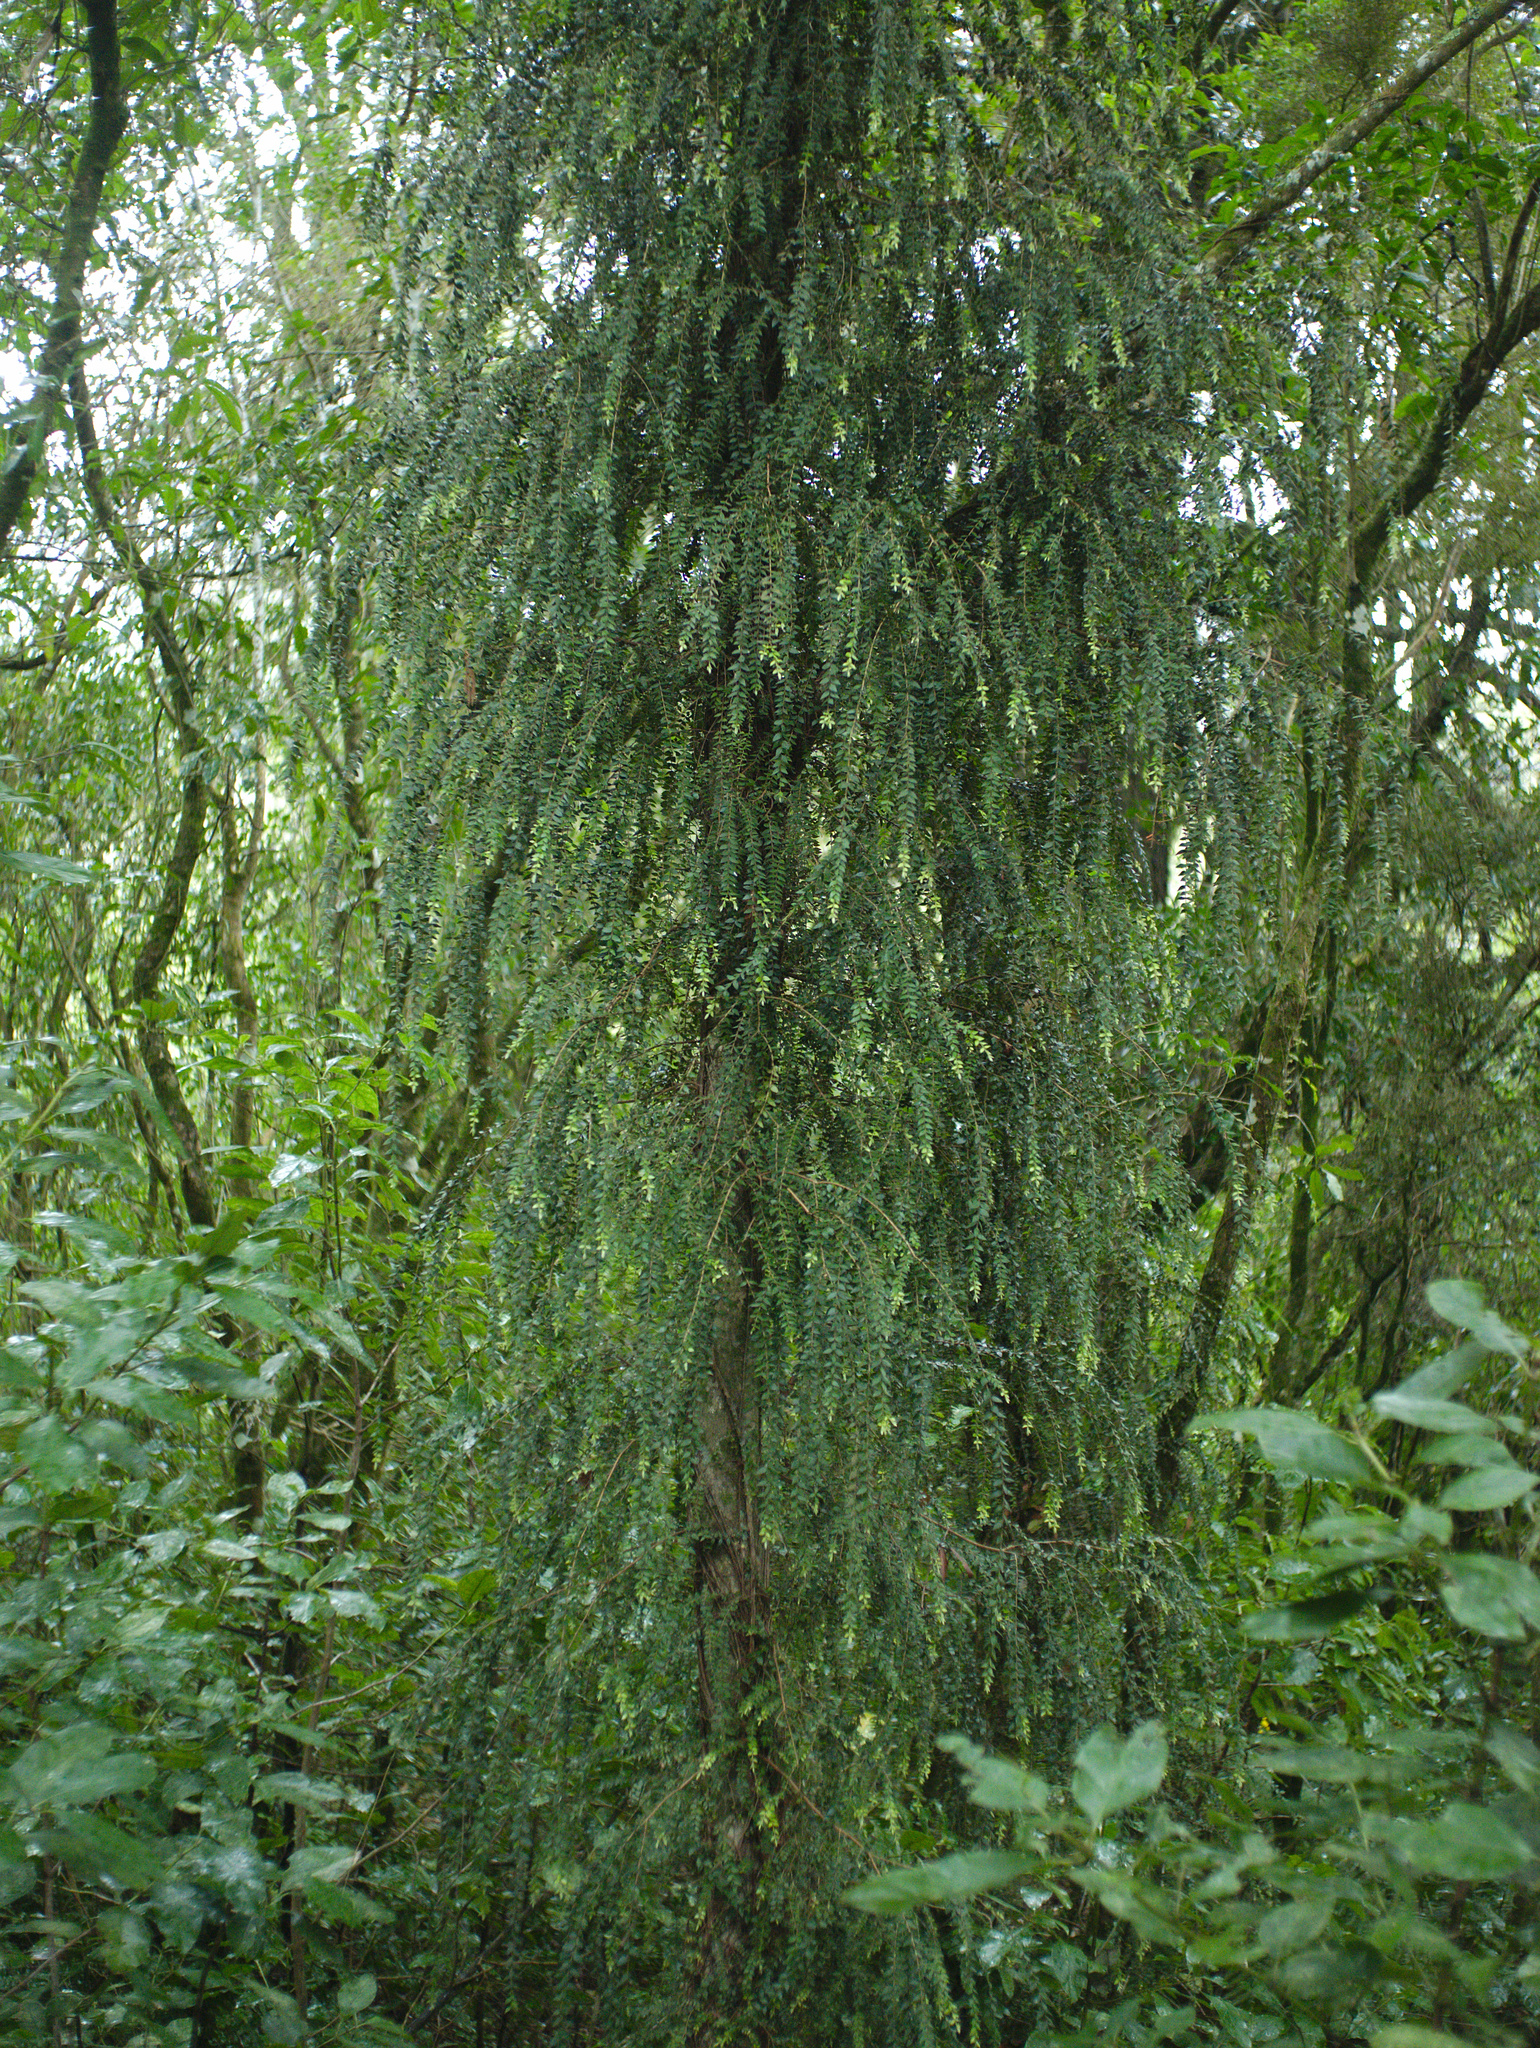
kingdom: Plantae
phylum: Tracheophyta
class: Magnoliopsida
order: Myrtales
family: Myrtaceae
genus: Metrosideros
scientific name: Metrosideros colensoi
